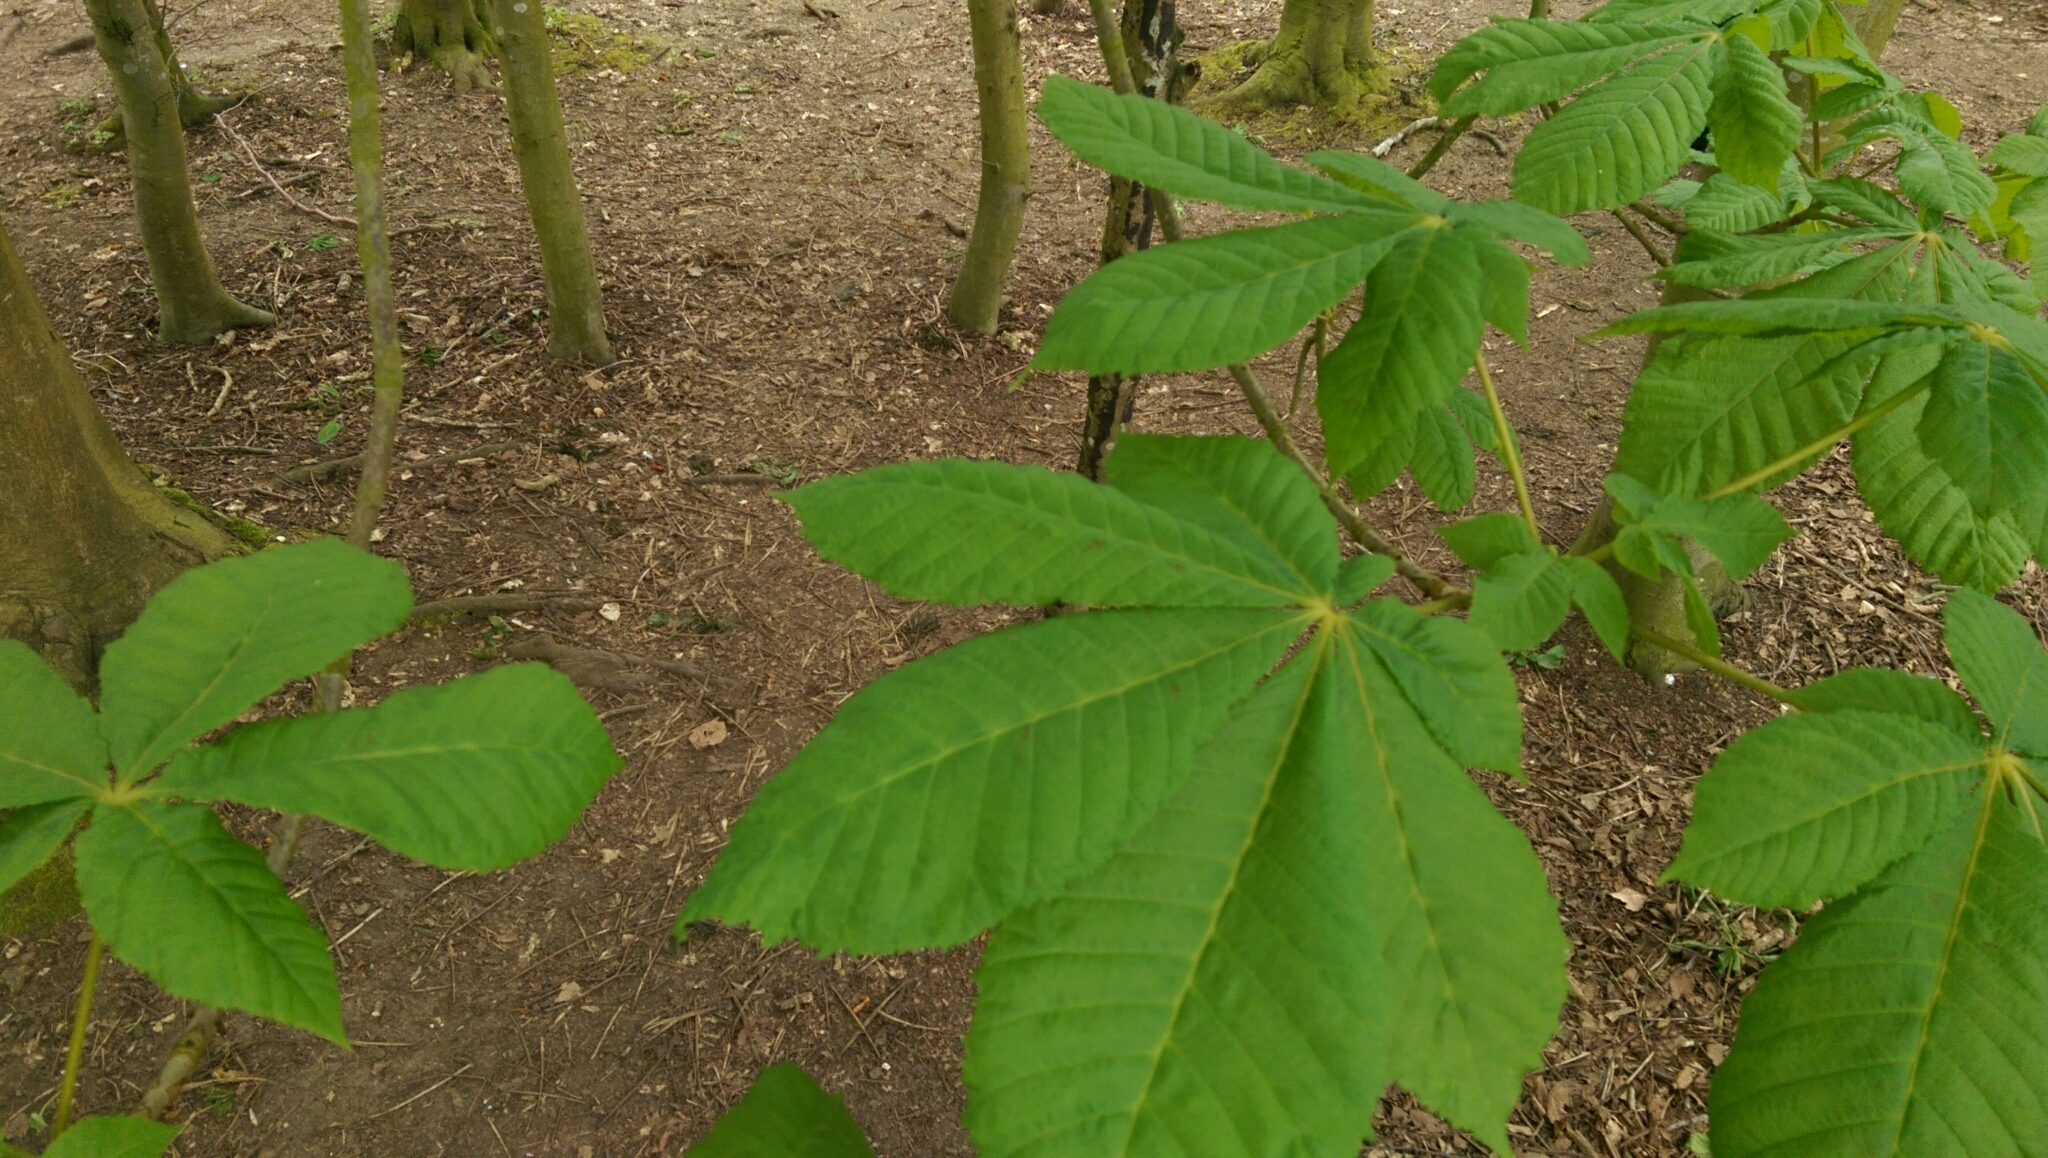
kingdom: Plantae
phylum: Tracheophyta
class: Magnoliopsida
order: Sapindales
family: Sapindaceae
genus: Aesculus
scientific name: Aesculus hippocastanum
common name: Horse-chestnut
